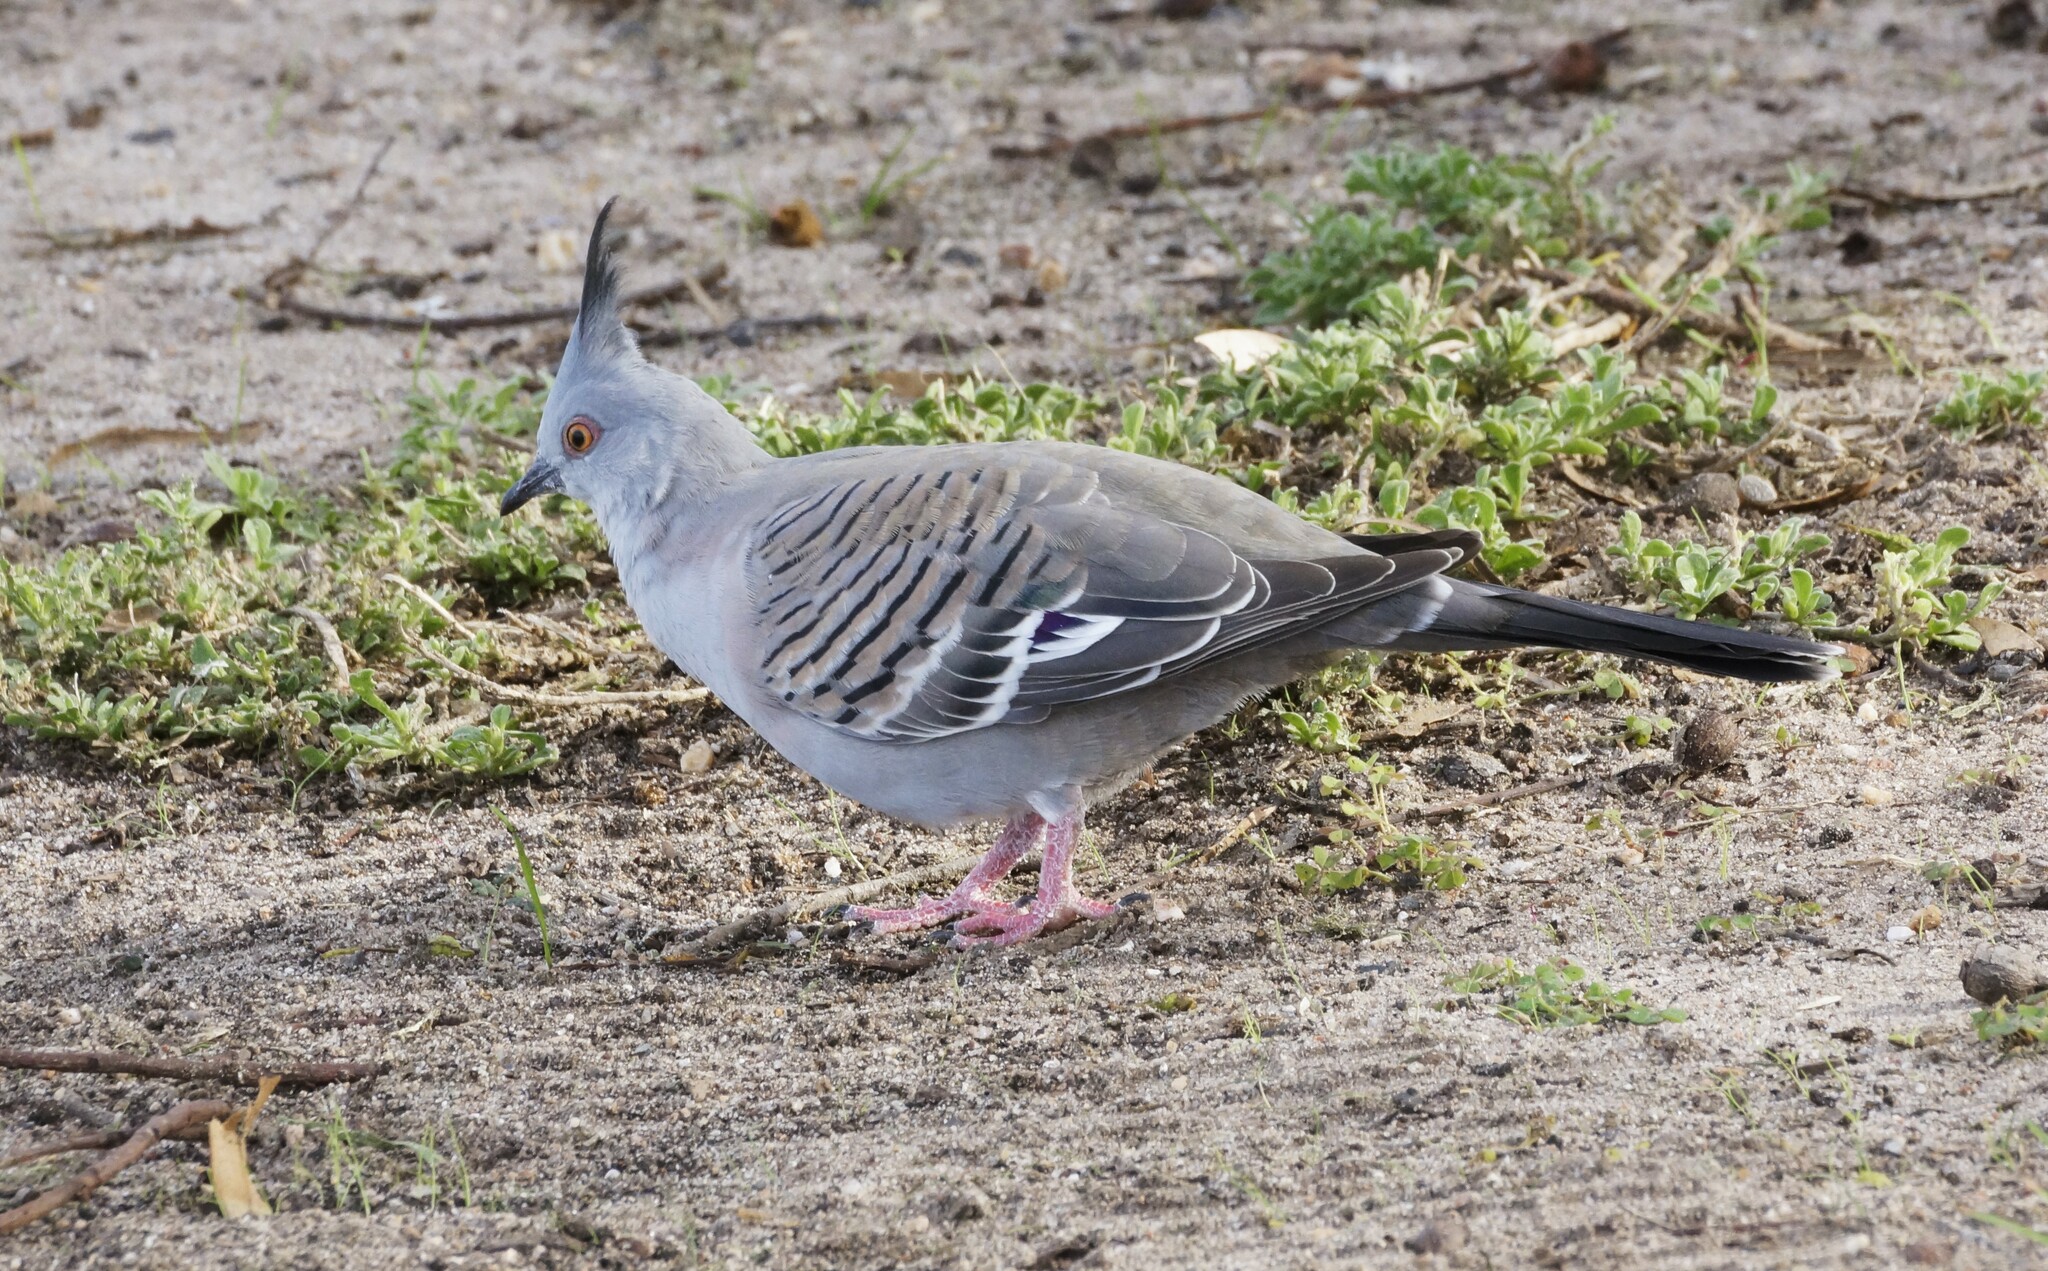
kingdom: Animalia
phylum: Chordata
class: Aves
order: Columbiformes
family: Columbidae
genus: Ocyphaps
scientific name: Ocyphaps lophotes
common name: Crested pigeon
